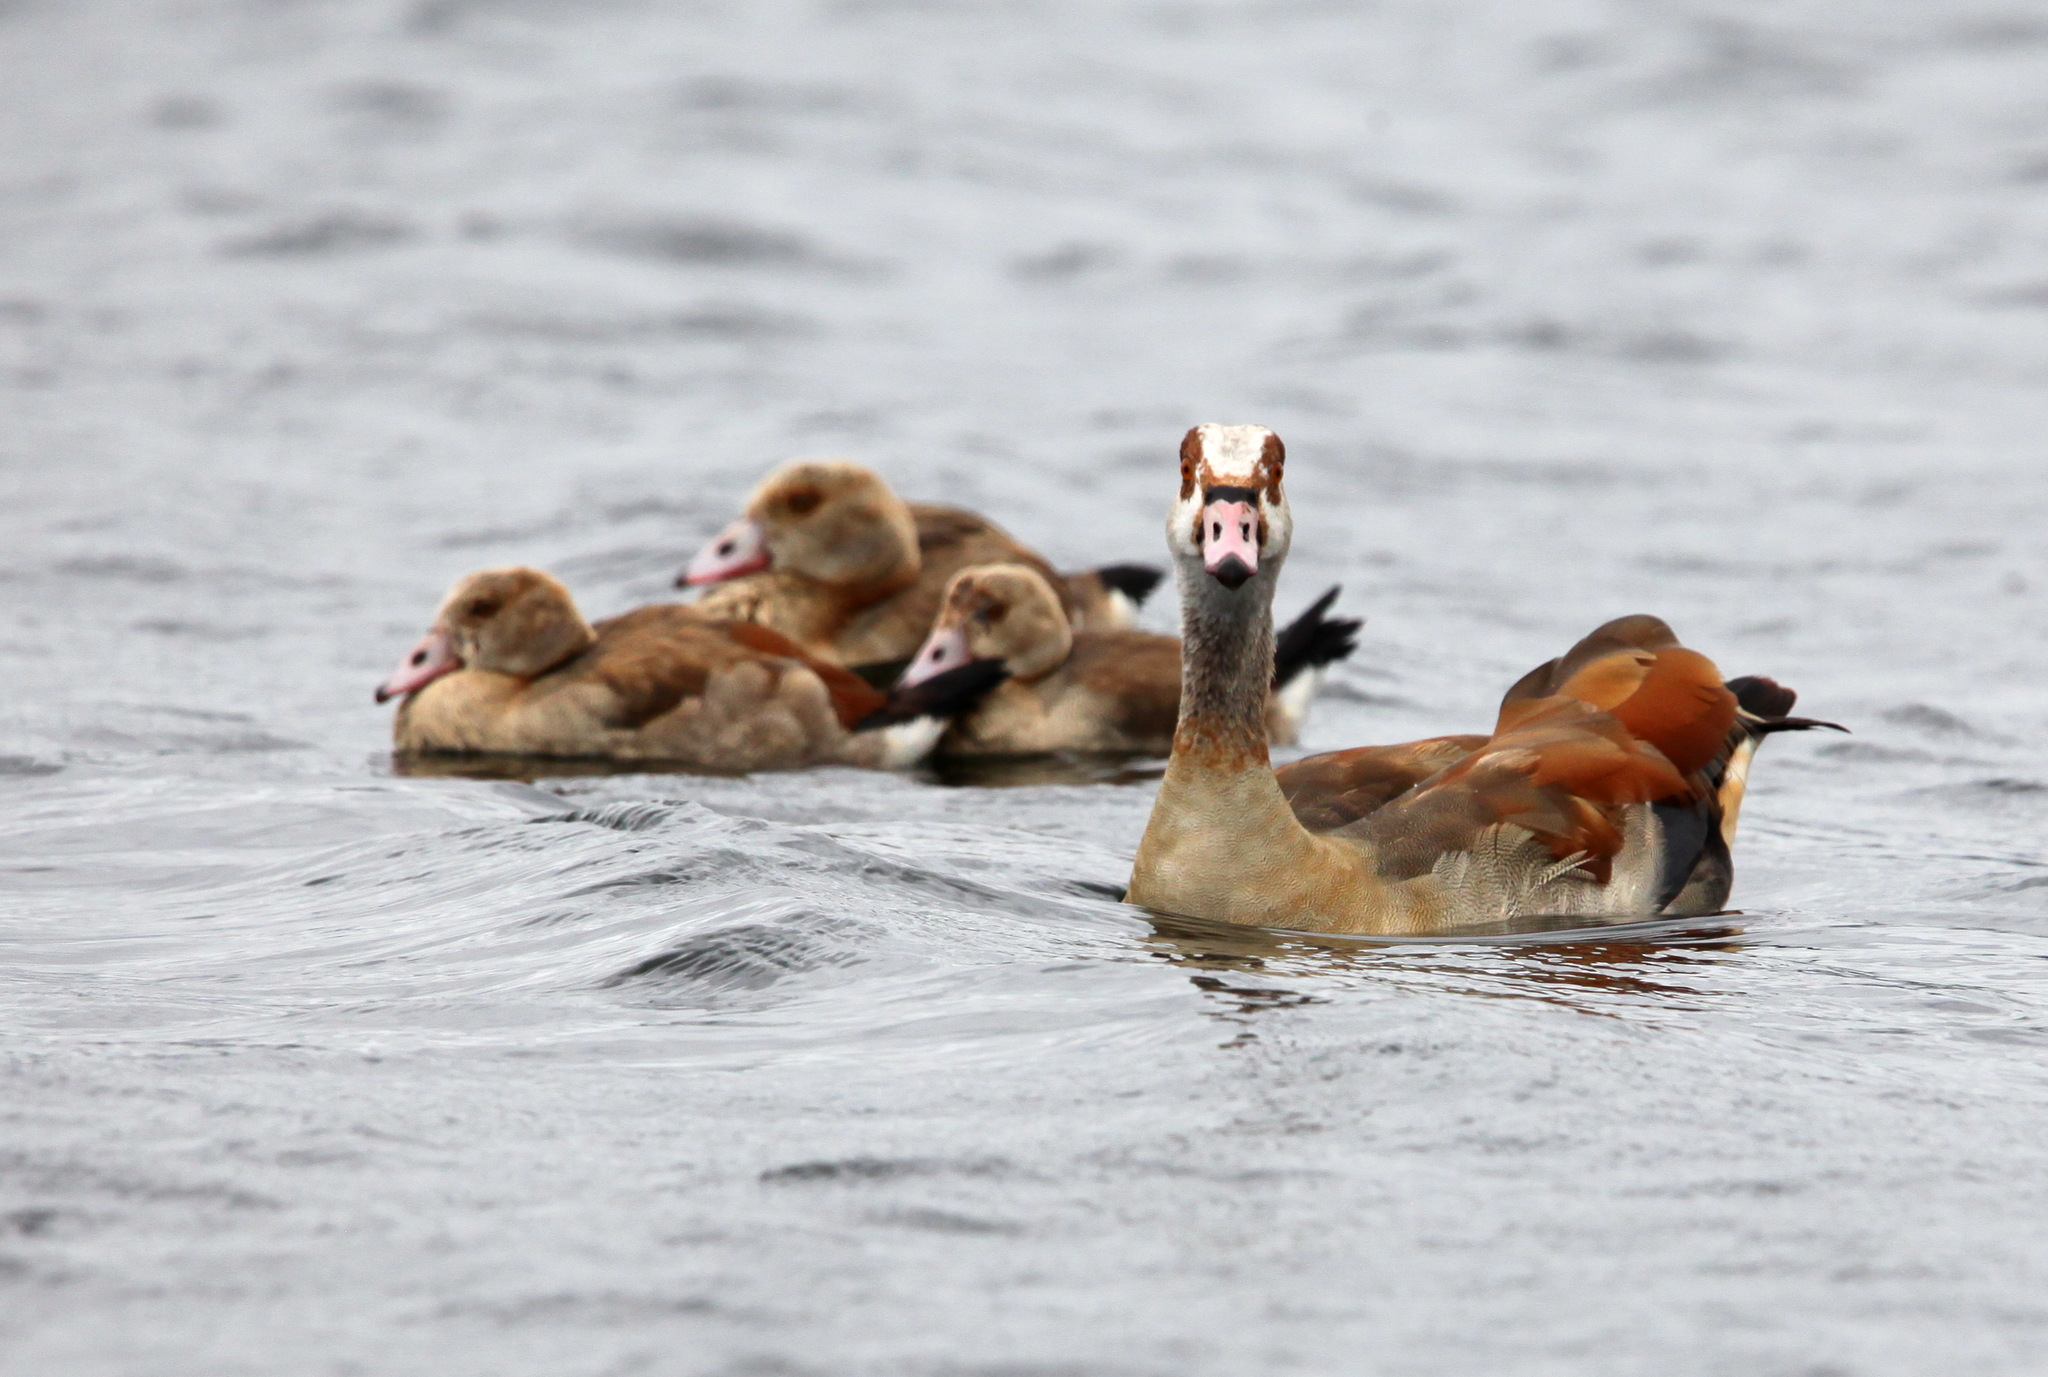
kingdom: Animalia
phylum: Chordata
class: Aves
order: Anseriformes
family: Anatidae
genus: Alopochen
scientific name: Alopochen aegyptiaca
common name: Egyptian goose
